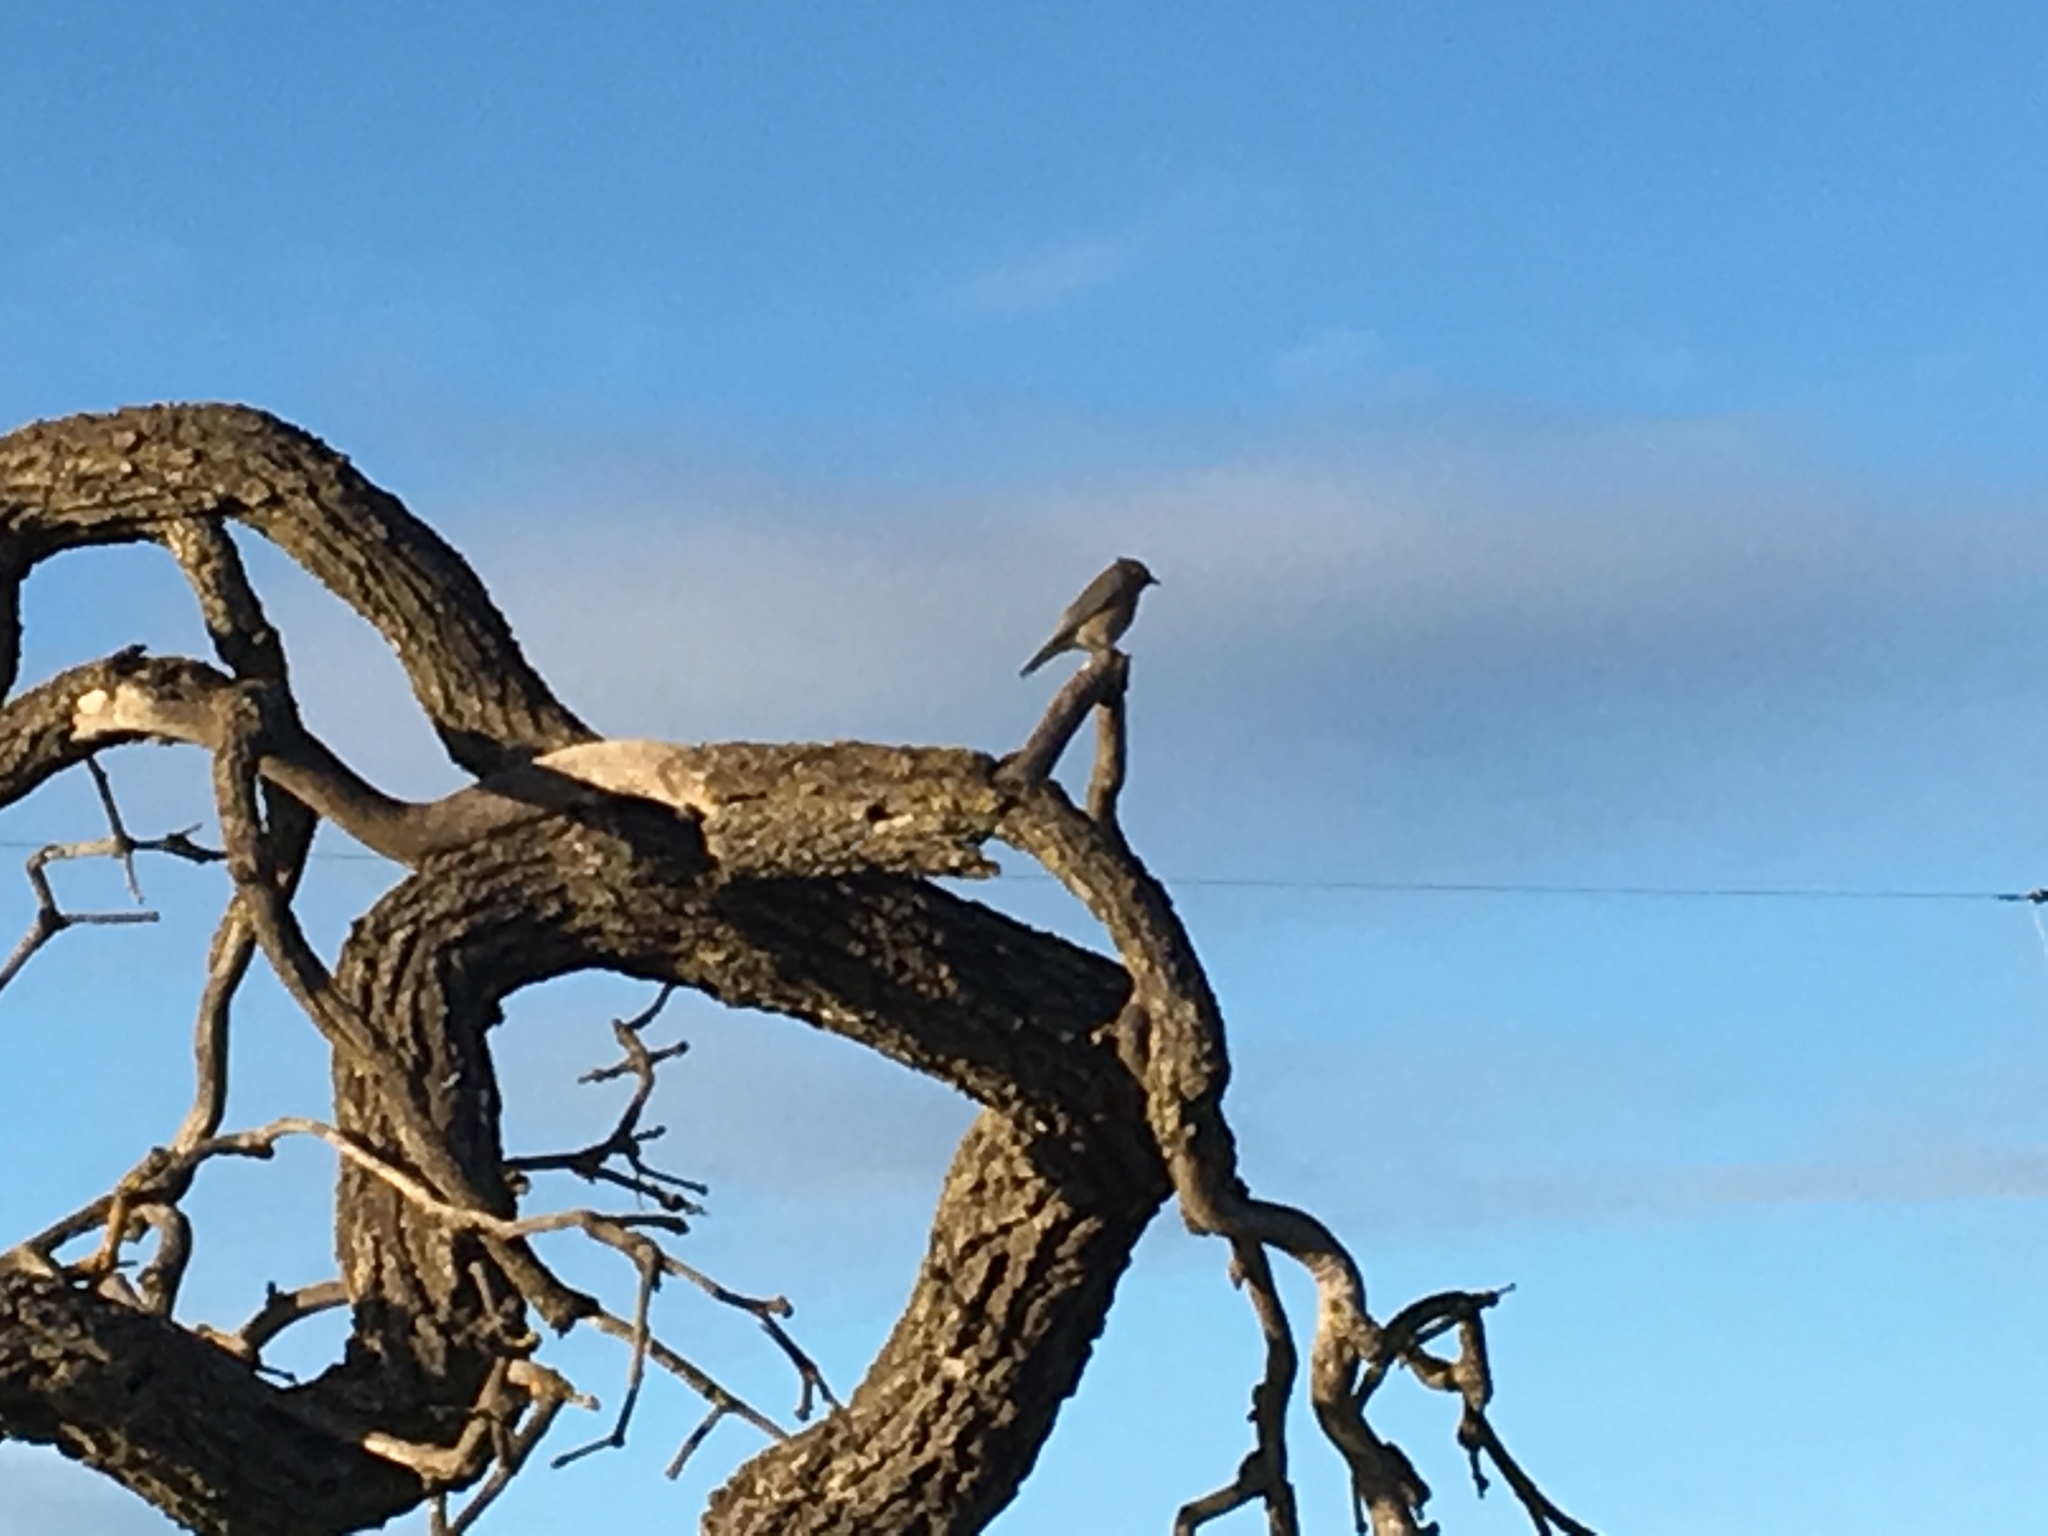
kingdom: Animalia
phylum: Chordata
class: Aves
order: Passeriformes
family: Turdidae
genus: Sialia
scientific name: Sialia mexicana
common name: Western bluebird
